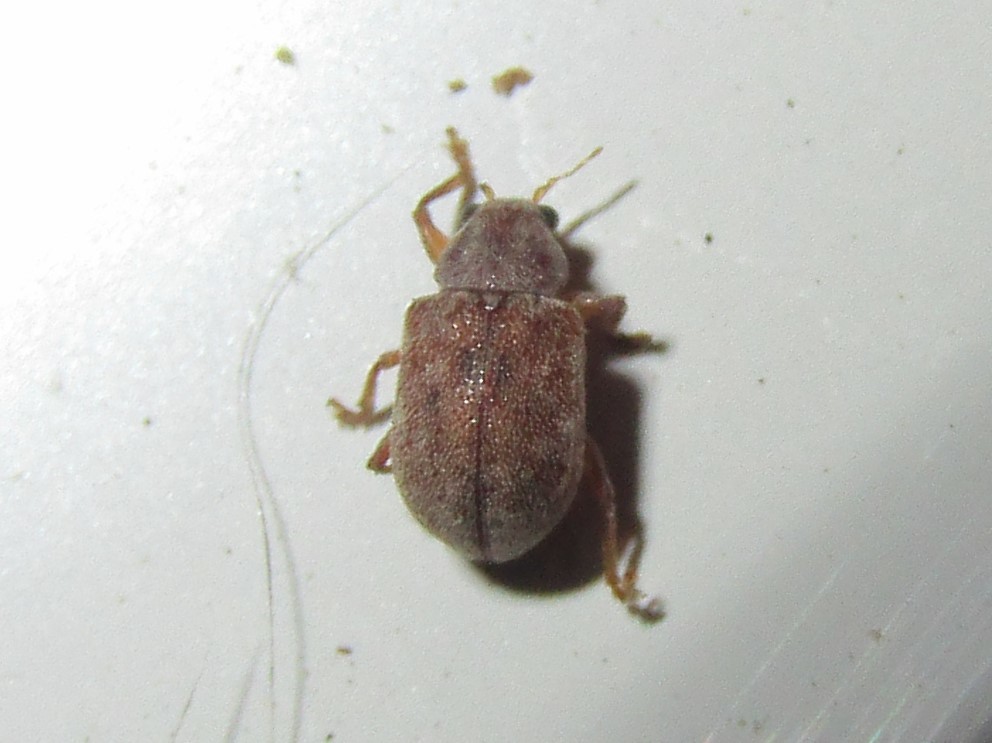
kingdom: Animalia
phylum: Arthropoda
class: Insecta
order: Coleoptera
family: Chrysomelidae
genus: Demotina
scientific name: Demotina modesta
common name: Leaf beetle
